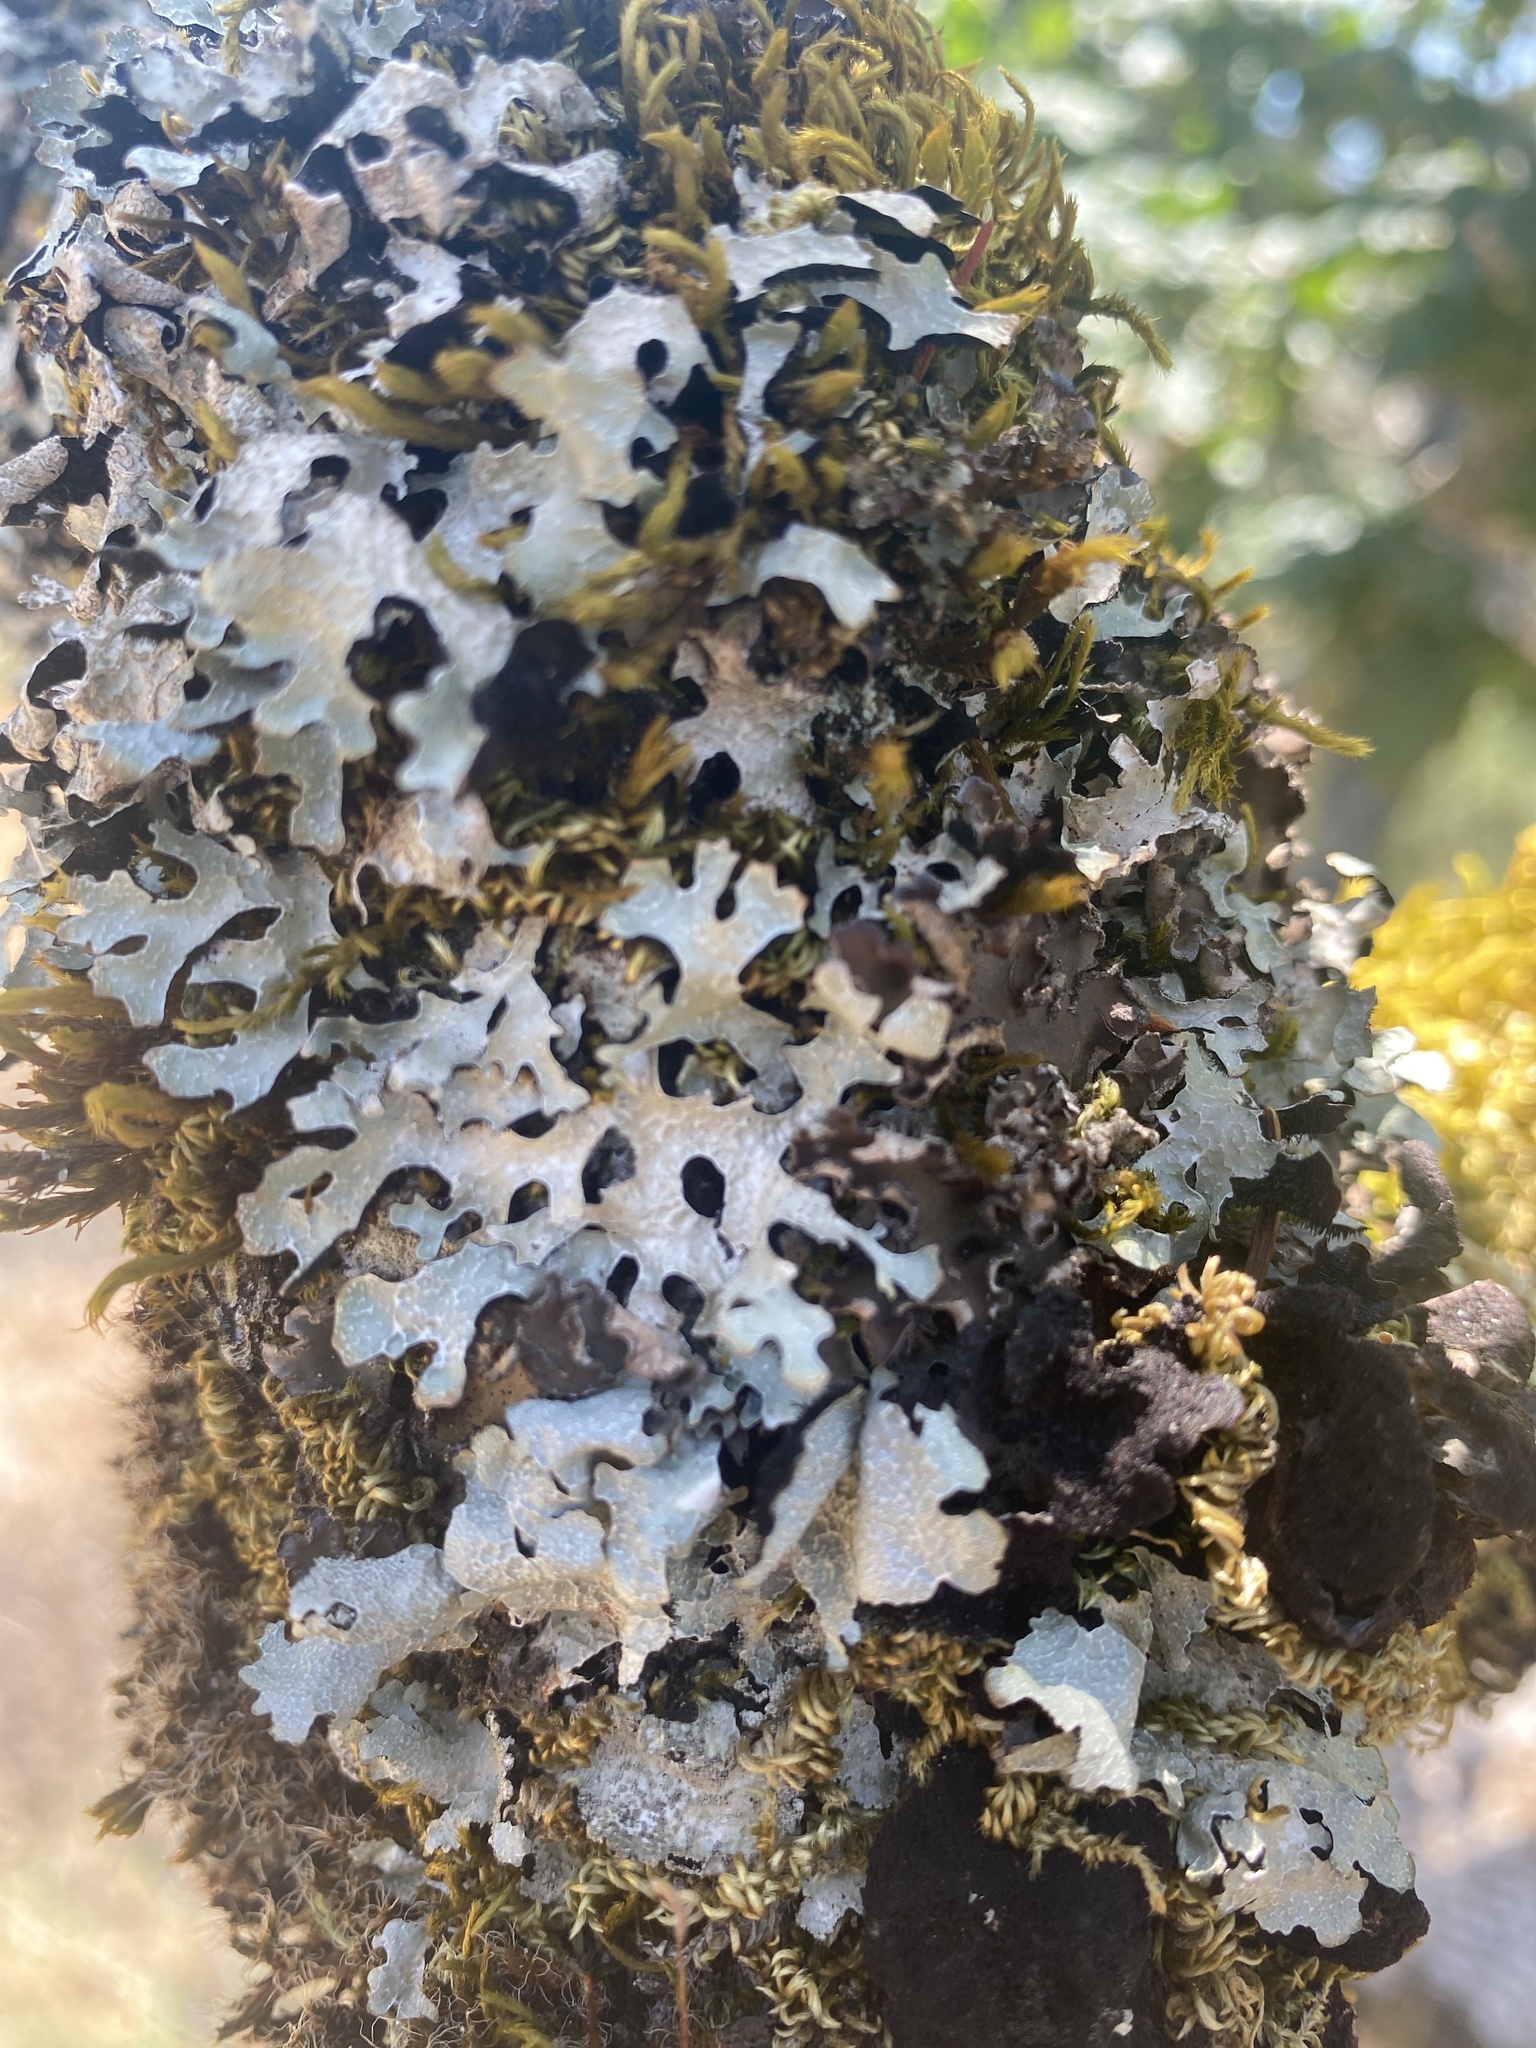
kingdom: Fungi
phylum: Ascomycota
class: Lecanoromycetes
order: Lecanorales
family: Parmeliaceae
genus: Parmelia
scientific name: Parmelia sulcata
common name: Netted shield lichen
